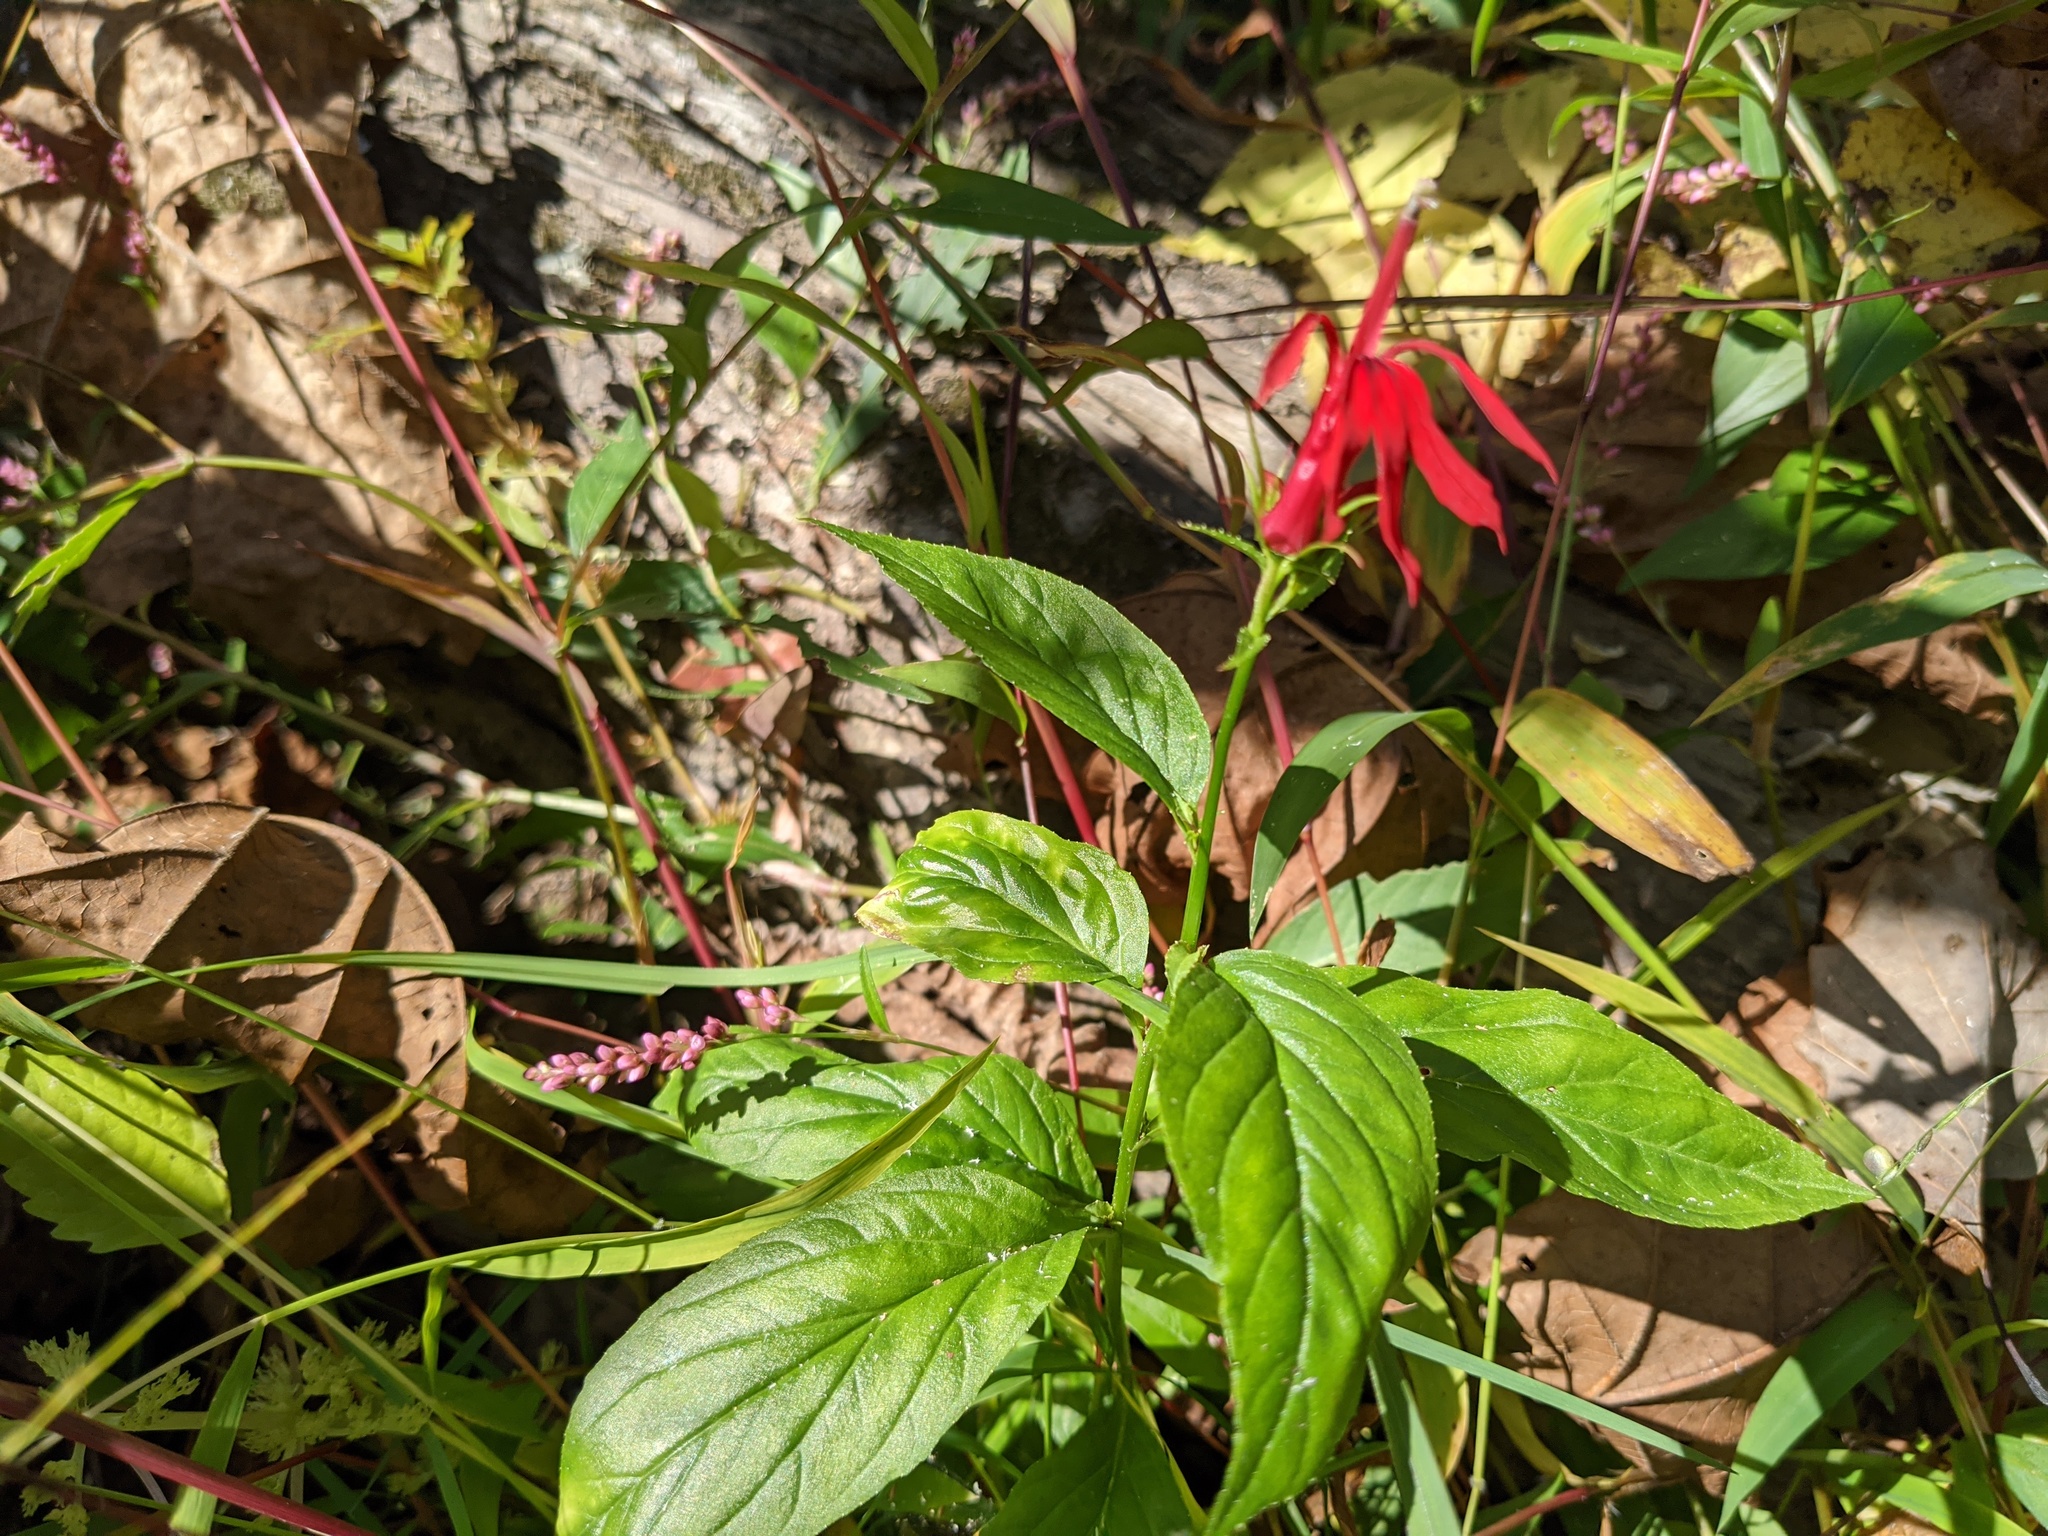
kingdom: Plantae
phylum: Tracheophyta
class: Magnoliopsida
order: Asterales
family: Campanulaceae
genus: Lobelia
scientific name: Lobelia cardinalis
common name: Cardinal flower
